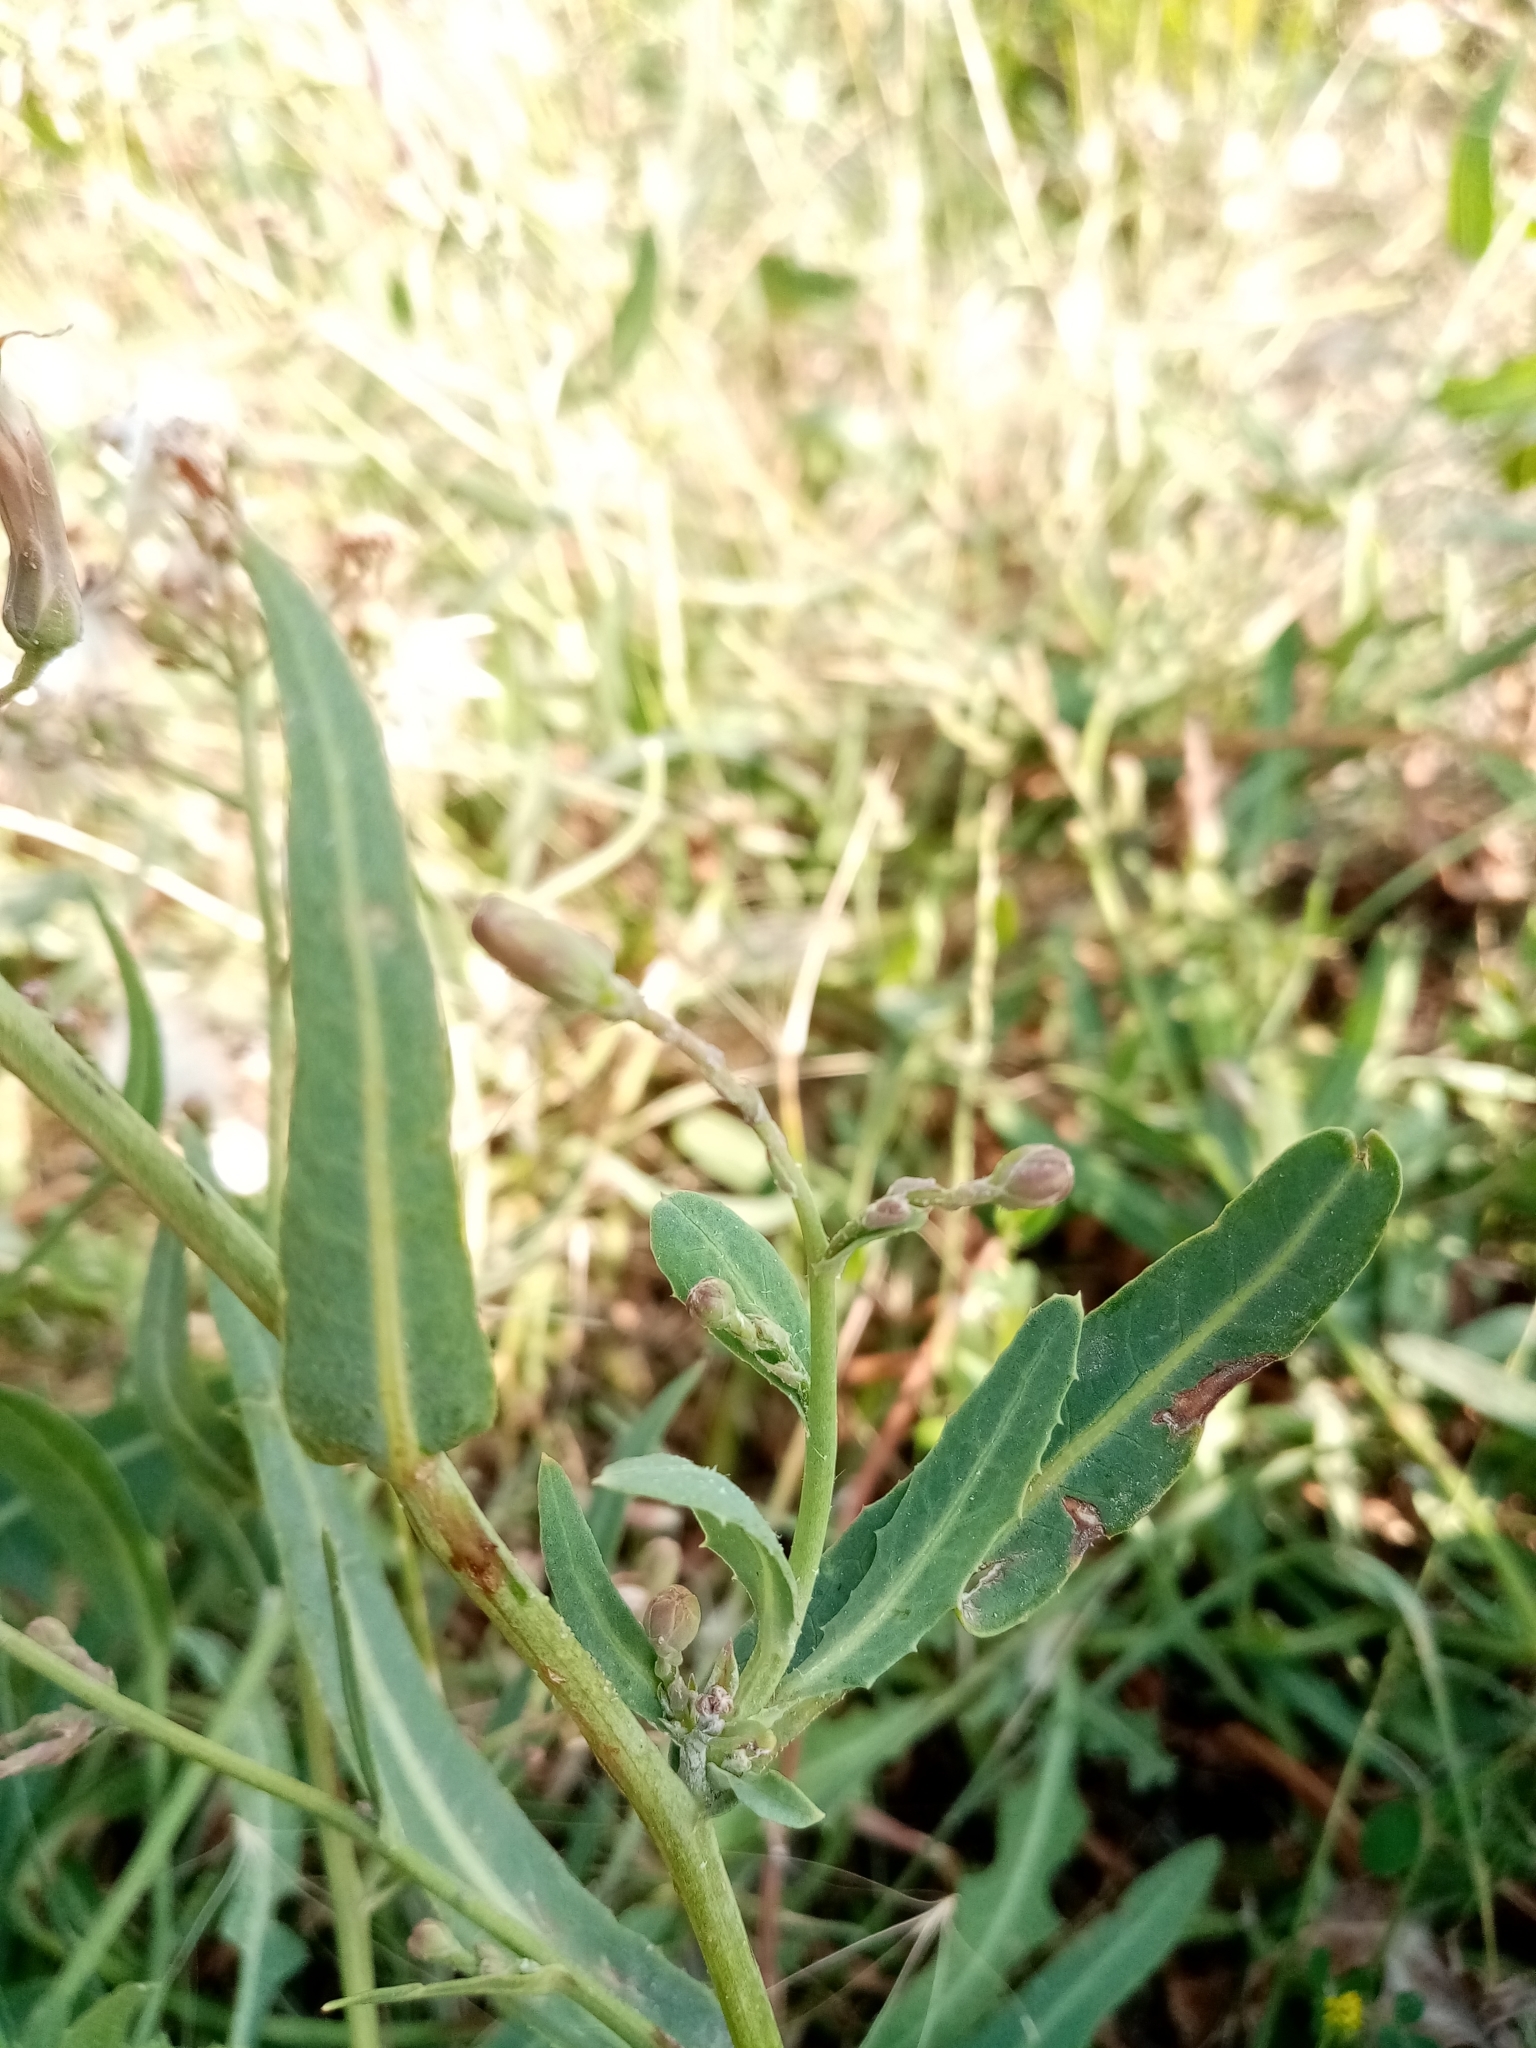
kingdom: Plantae
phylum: Tracheophyta
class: Magnoliopsida
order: Asterales
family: Asteraceae
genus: Lactuca
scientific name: Lactuca tatarica
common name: Blue lettuce
